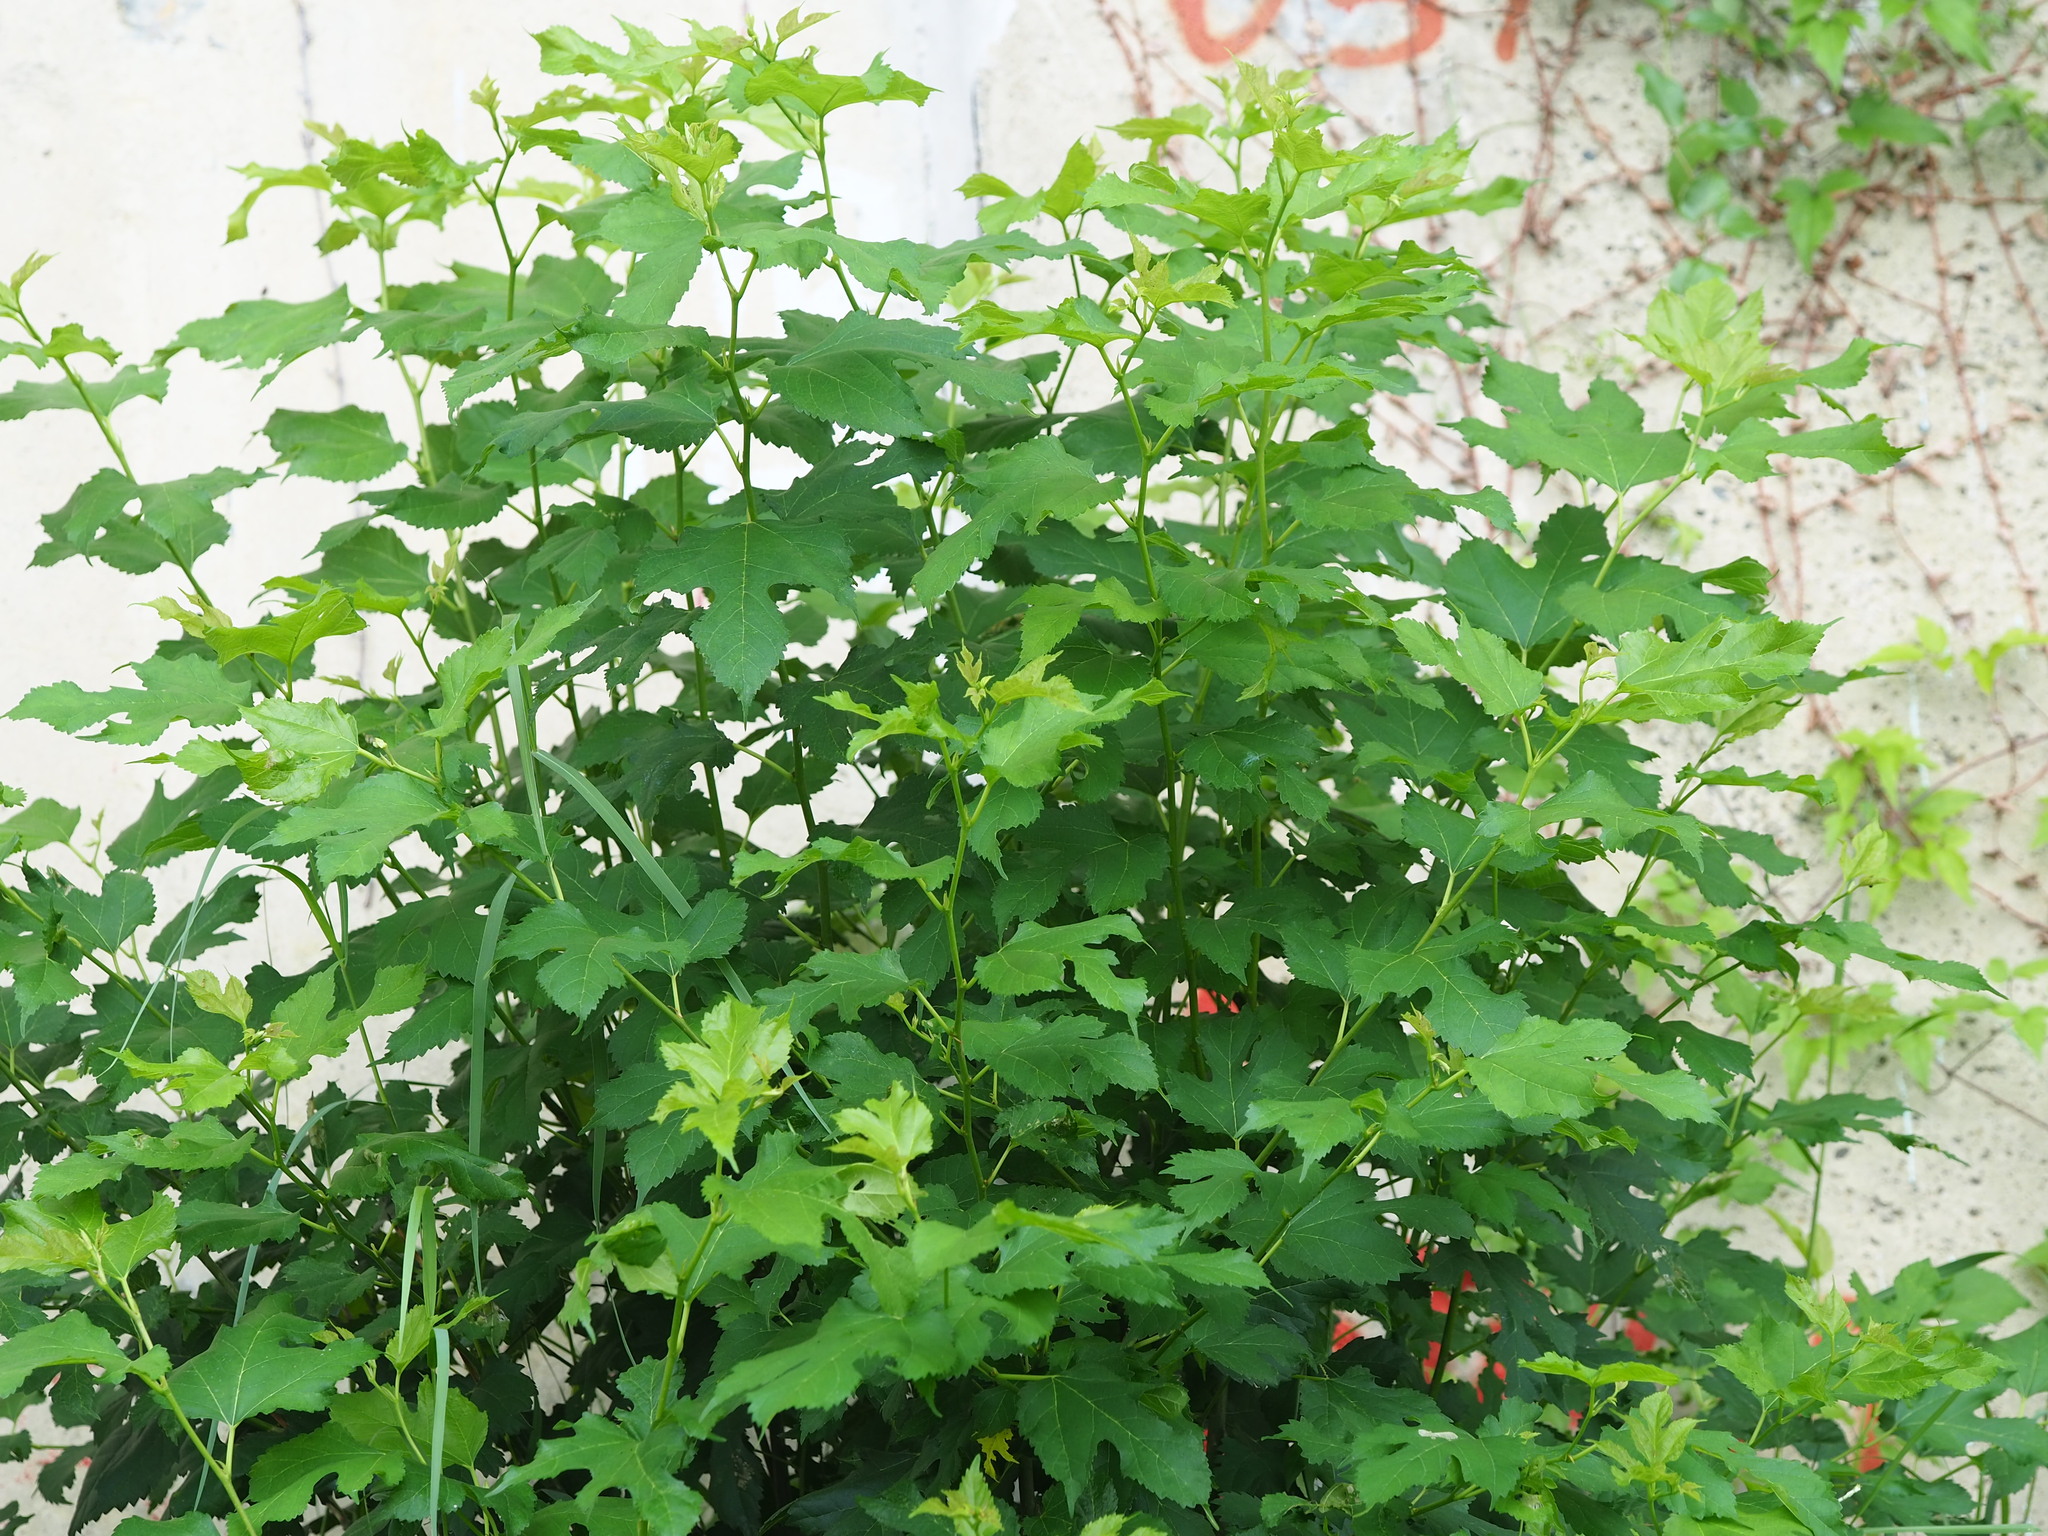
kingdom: Plantae
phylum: Tracheophyta
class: Magnoliopsida
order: Rosales
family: Moraceae
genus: Morus
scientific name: Morus indica
